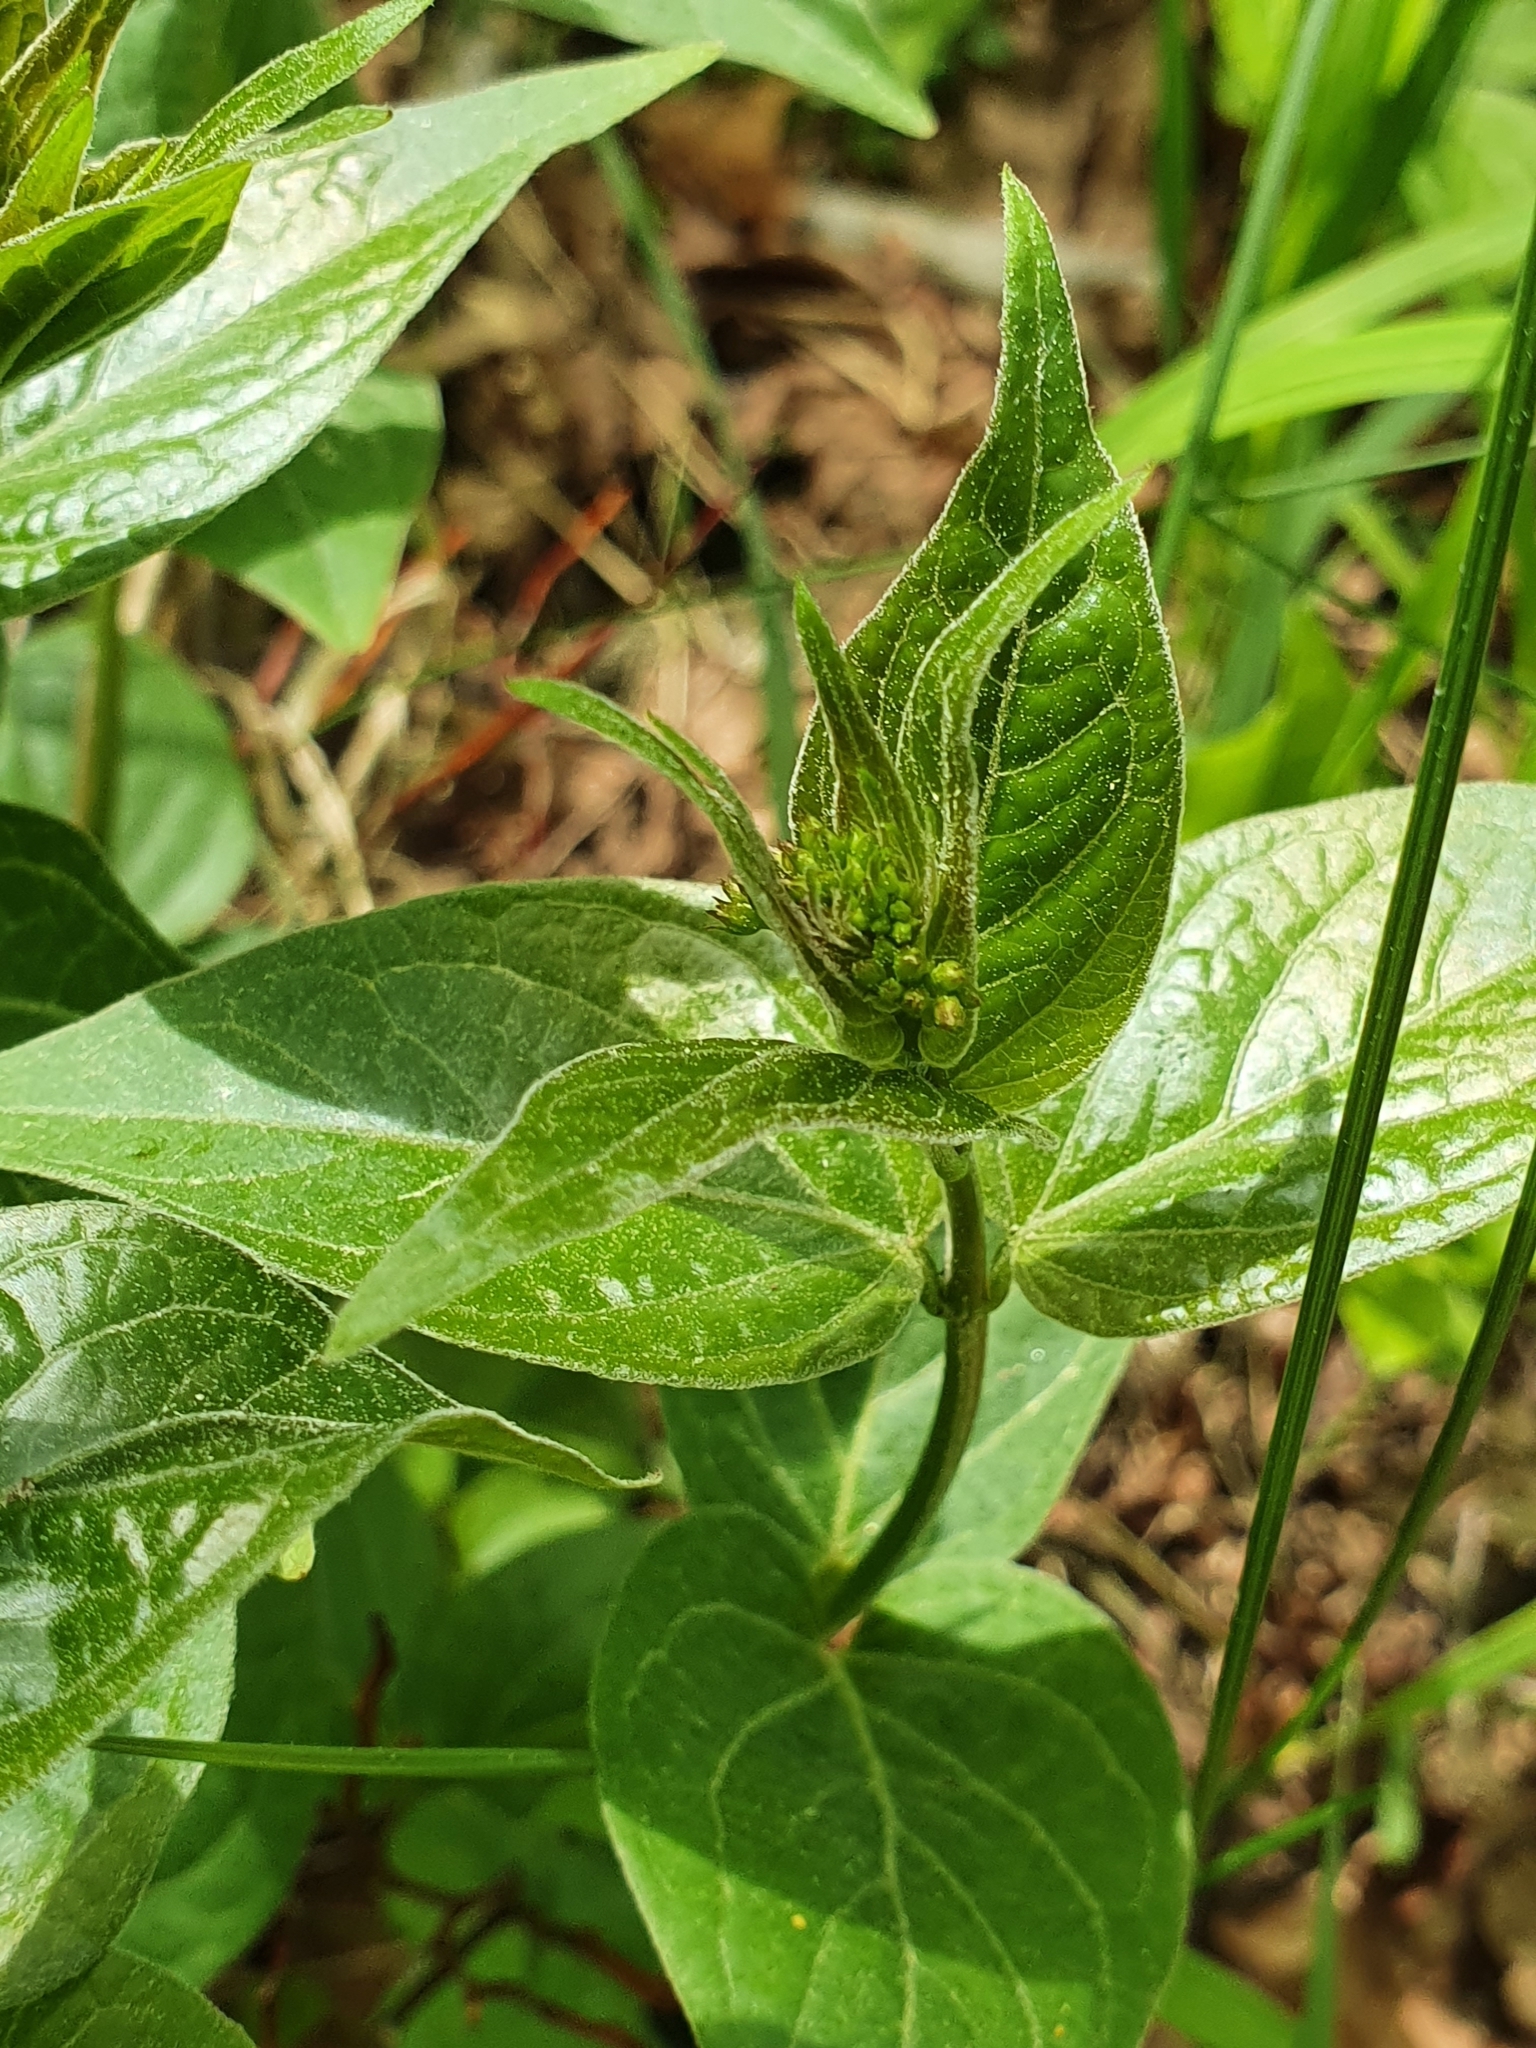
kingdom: Plantae
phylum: Tracheophyta
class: Magnoliopsida
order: Gentianales
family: Apocynaceae
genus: Vincetoxicum
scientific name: Vincetoxicum hirundinaria
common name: White swallowwort
